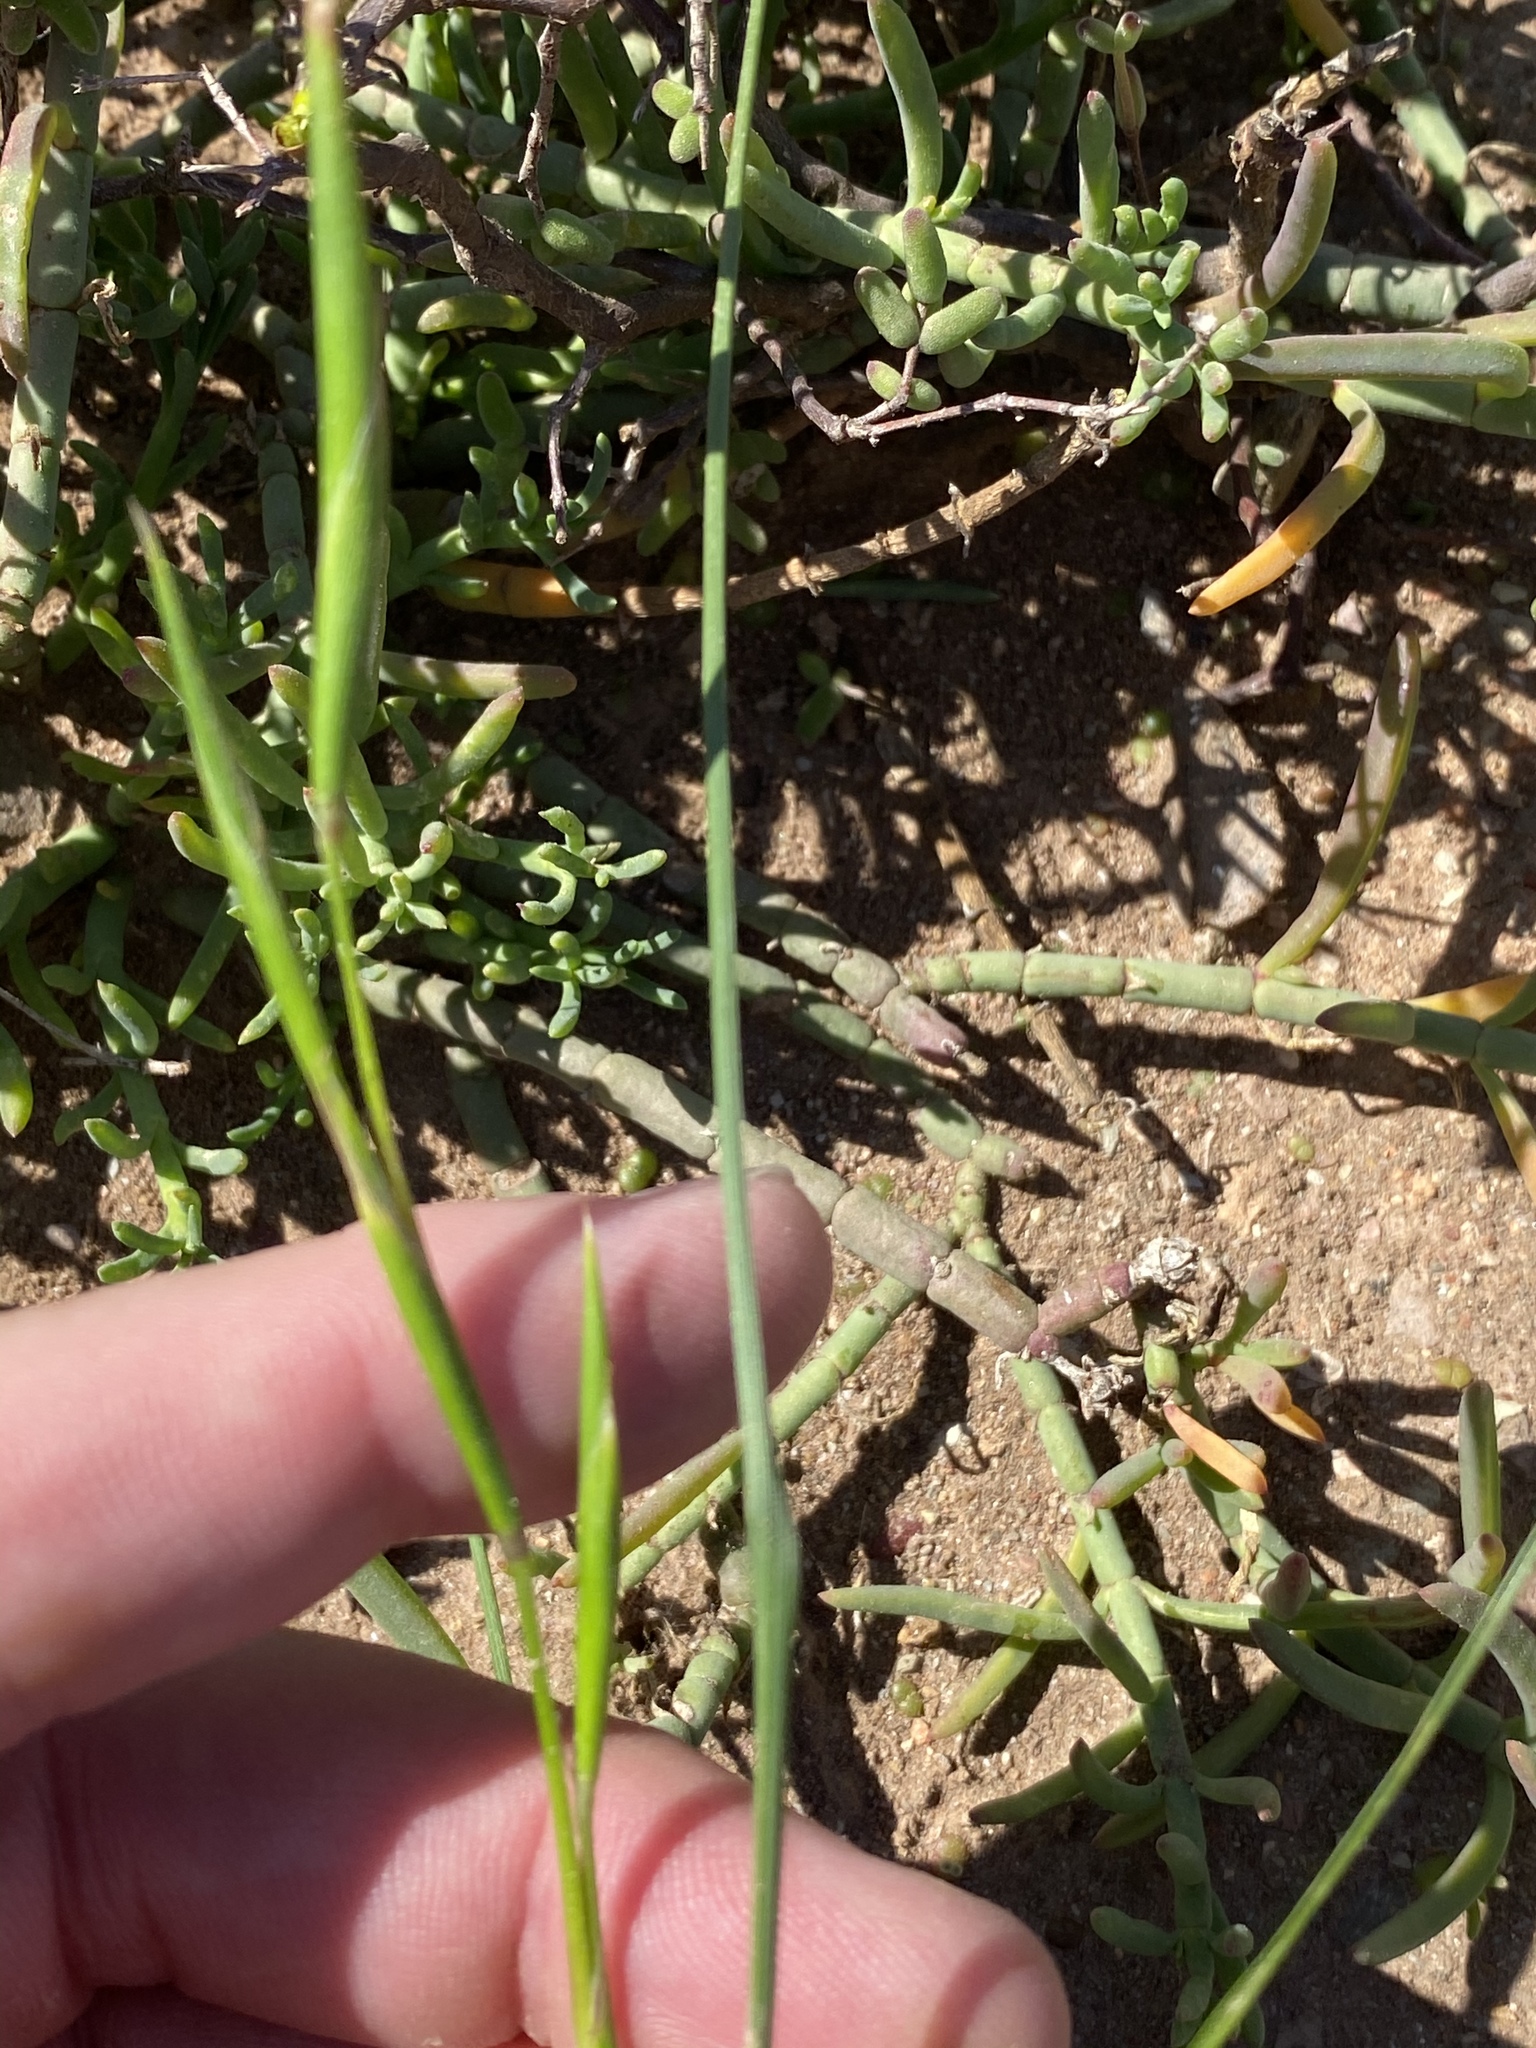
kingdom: Plantae
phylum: Tracheophyta
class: Liliopsida
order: Asparagales
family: Iridaceae
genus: Moraea
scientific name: Moraea bipartita
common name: Blue tulp
